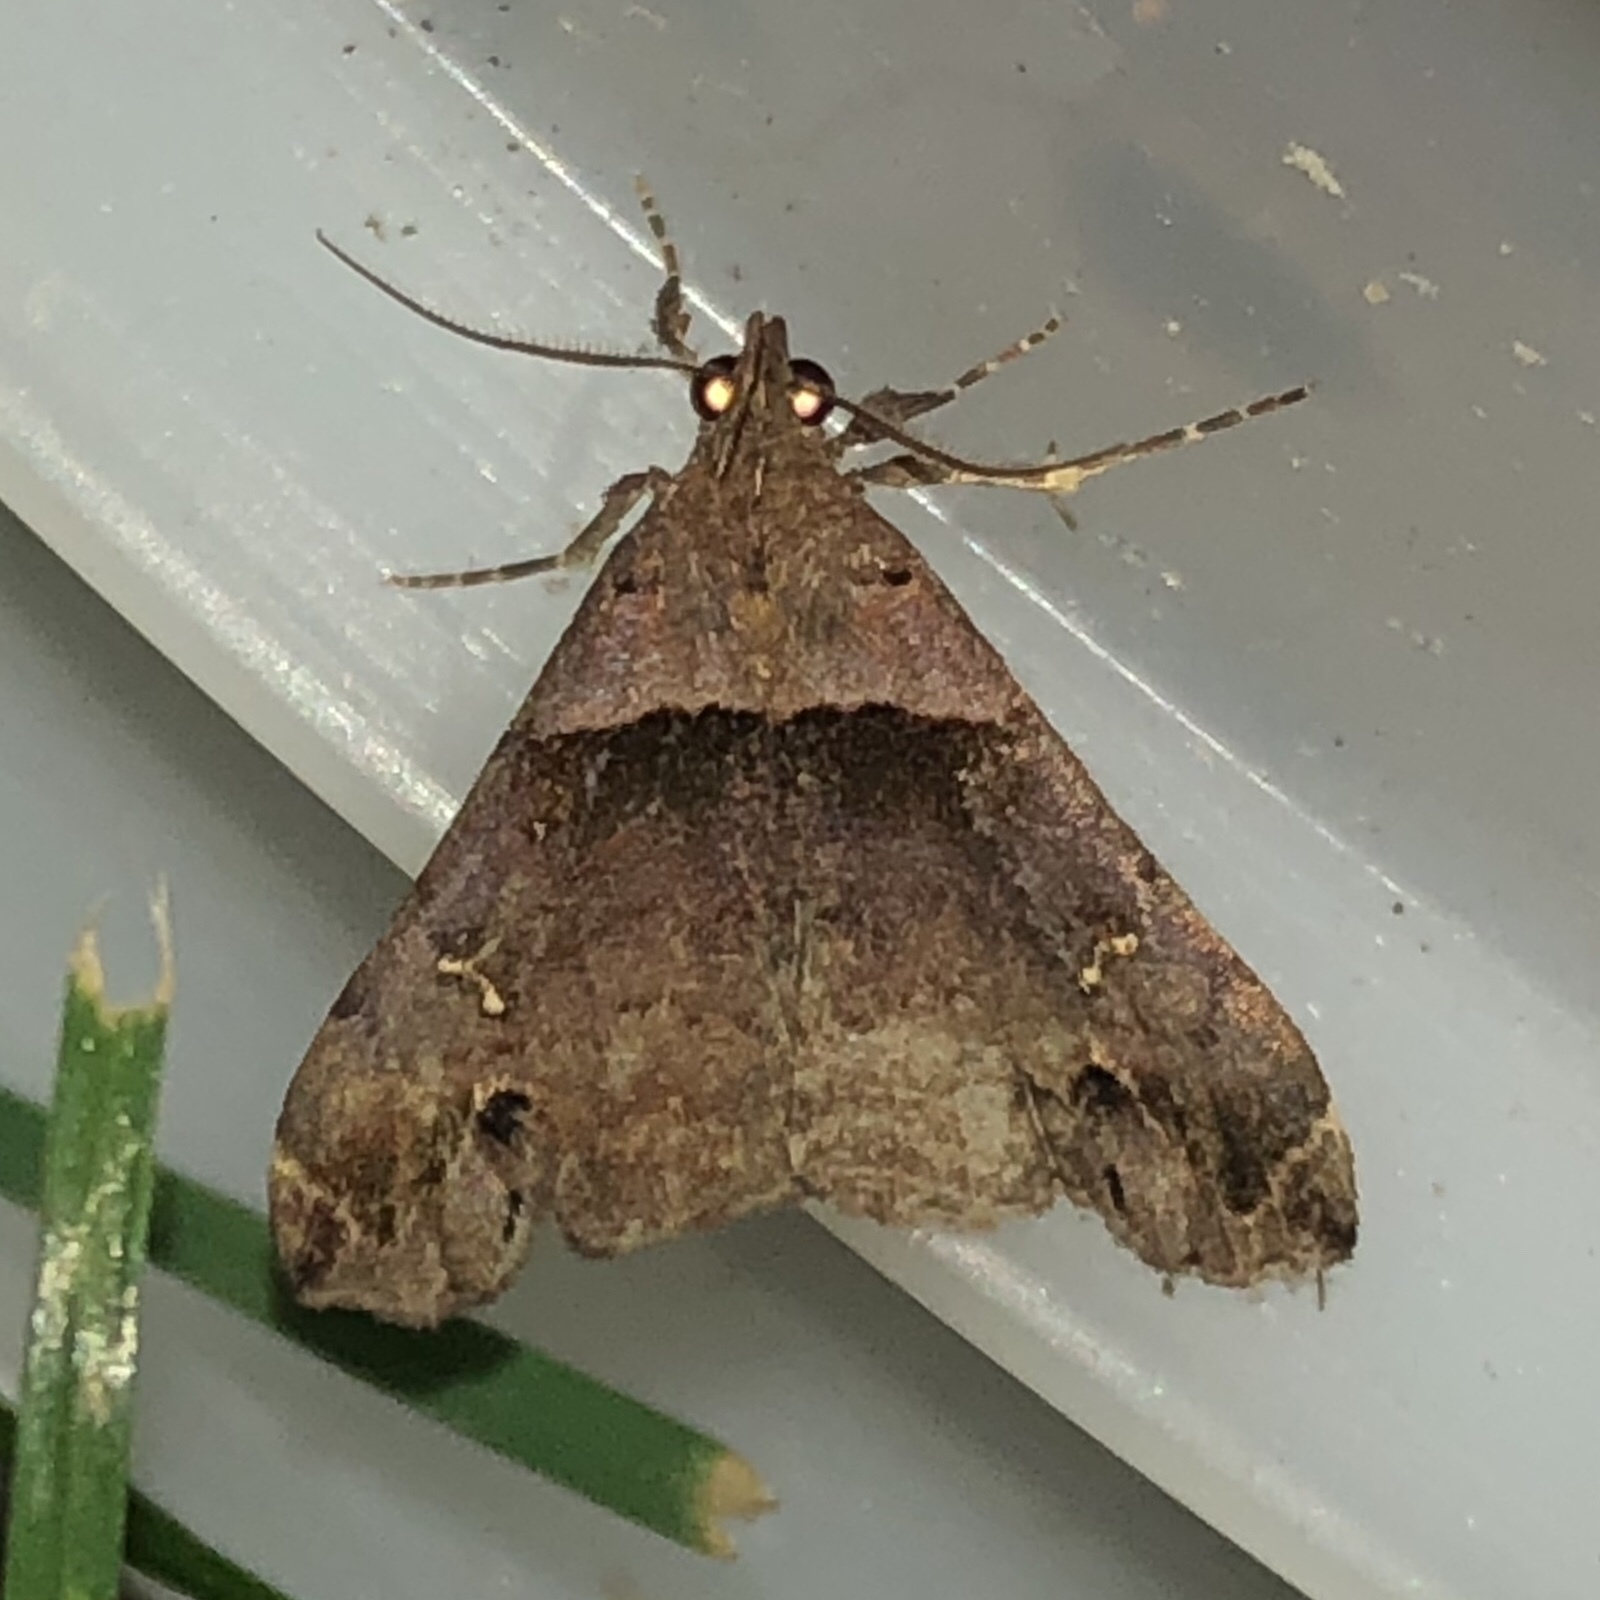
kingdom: Animalia
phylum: Arthropoda
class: Insecta
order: Lepidoptera
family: Erebidae
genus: Lascoria
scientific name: Lascoria ambigualis
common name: Ambiguous moth
